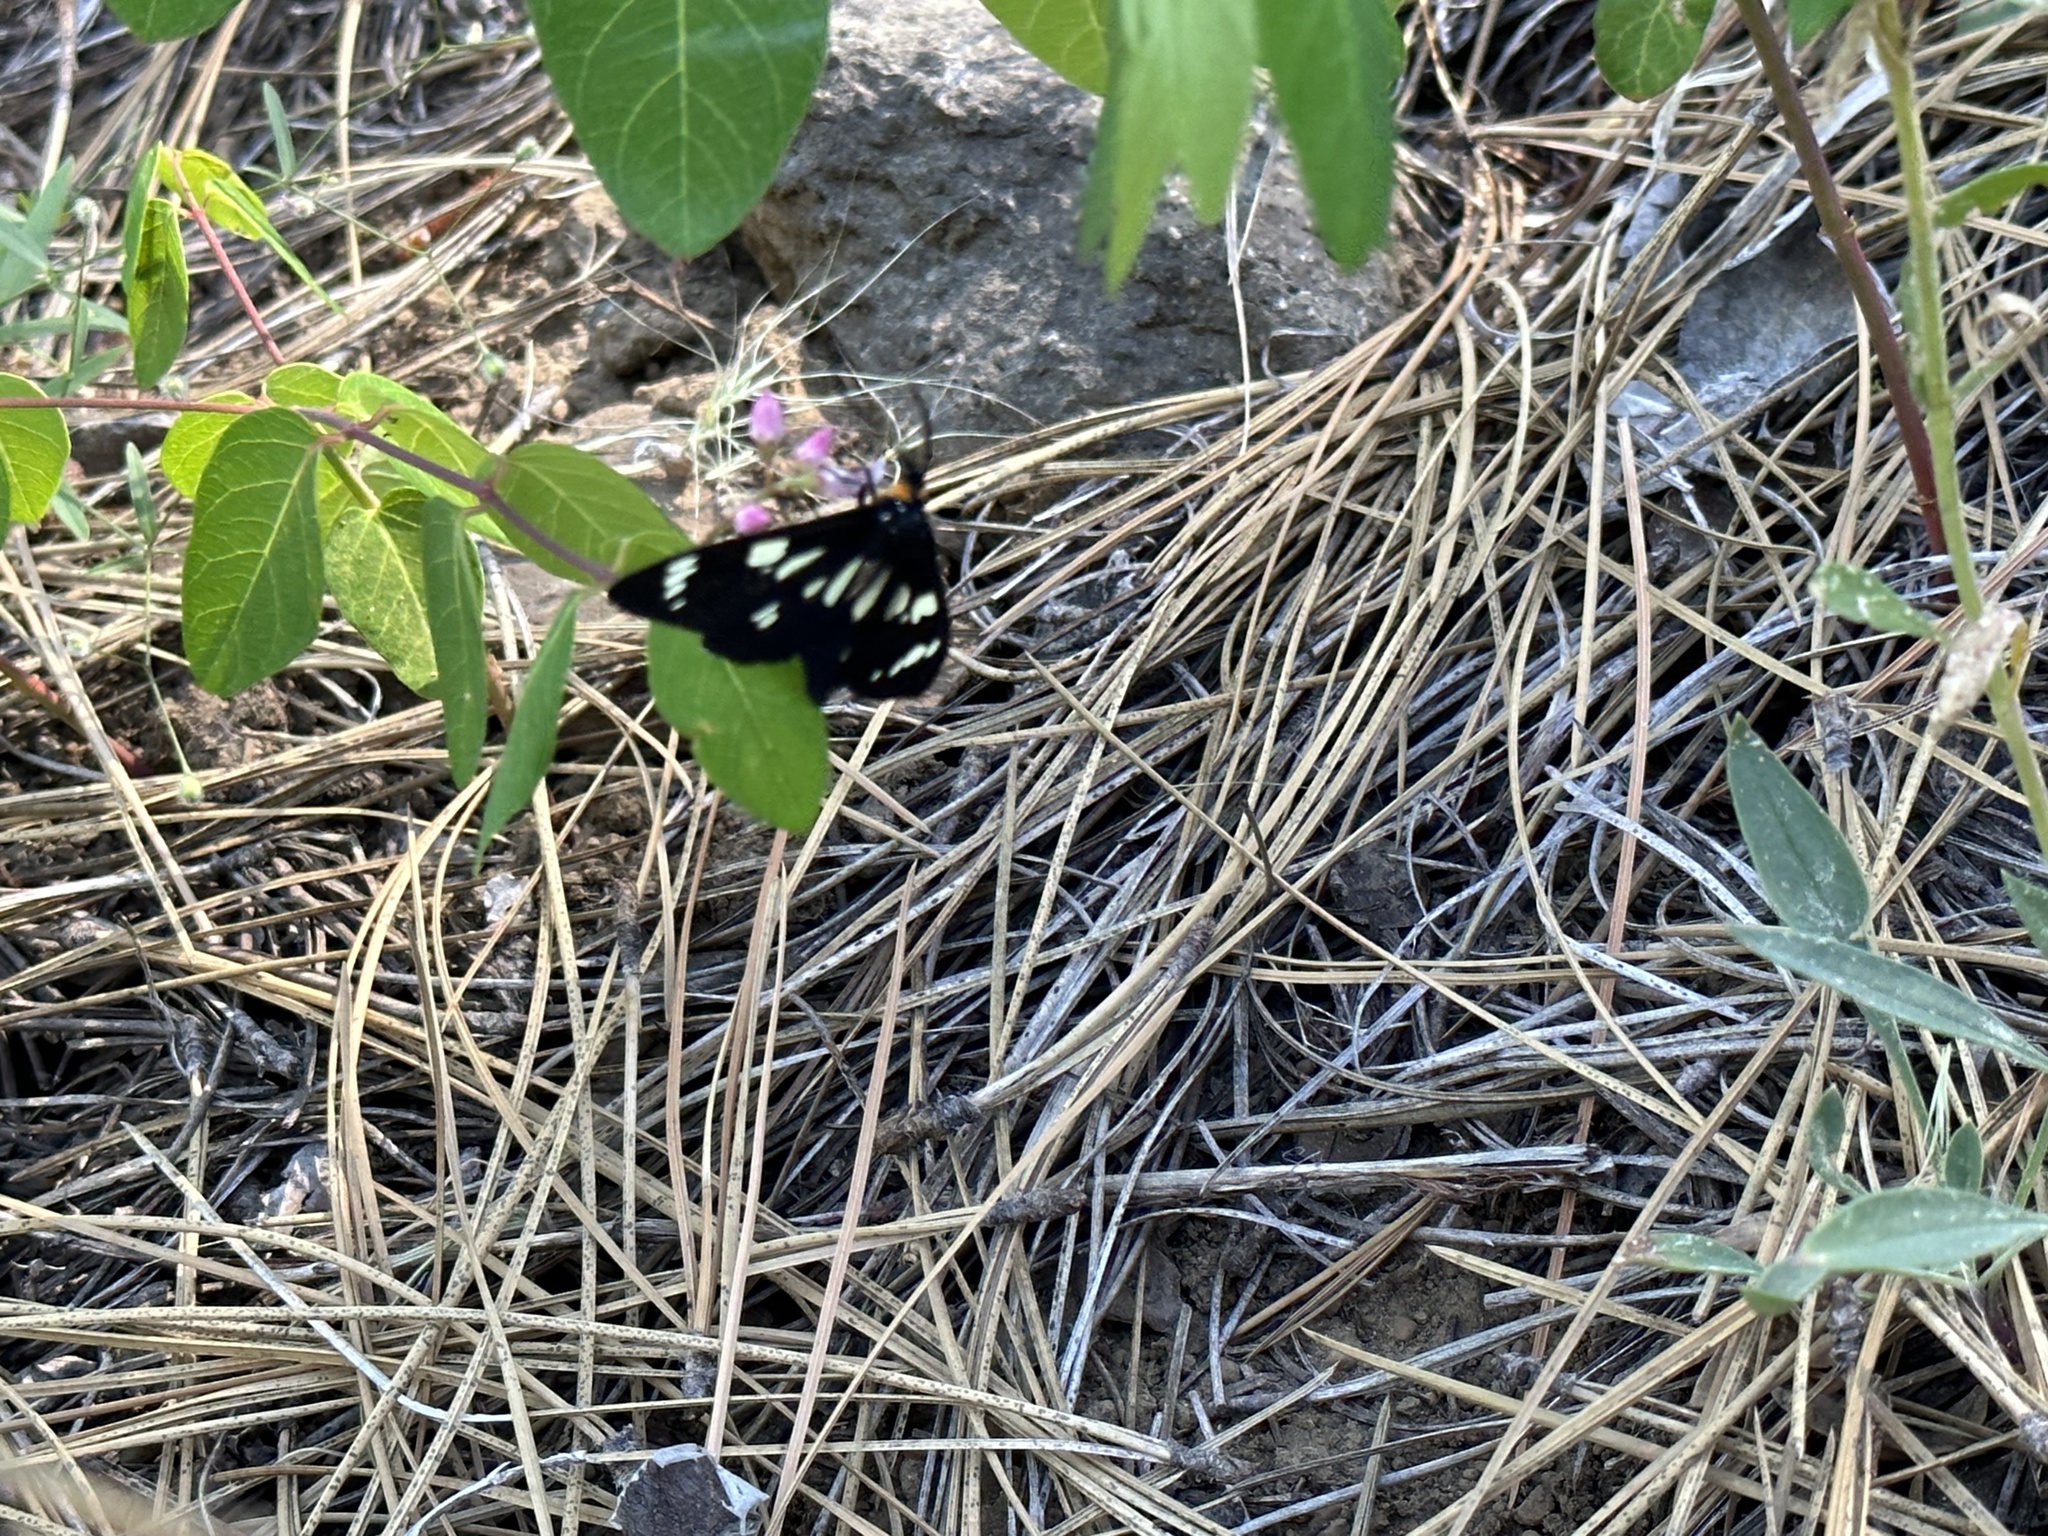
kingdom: Animalia
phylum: Arthropoda
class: Insecta
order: Lepidoptera
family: Erebidae
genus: Gnophaela
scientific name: Gnophaela latipennis
